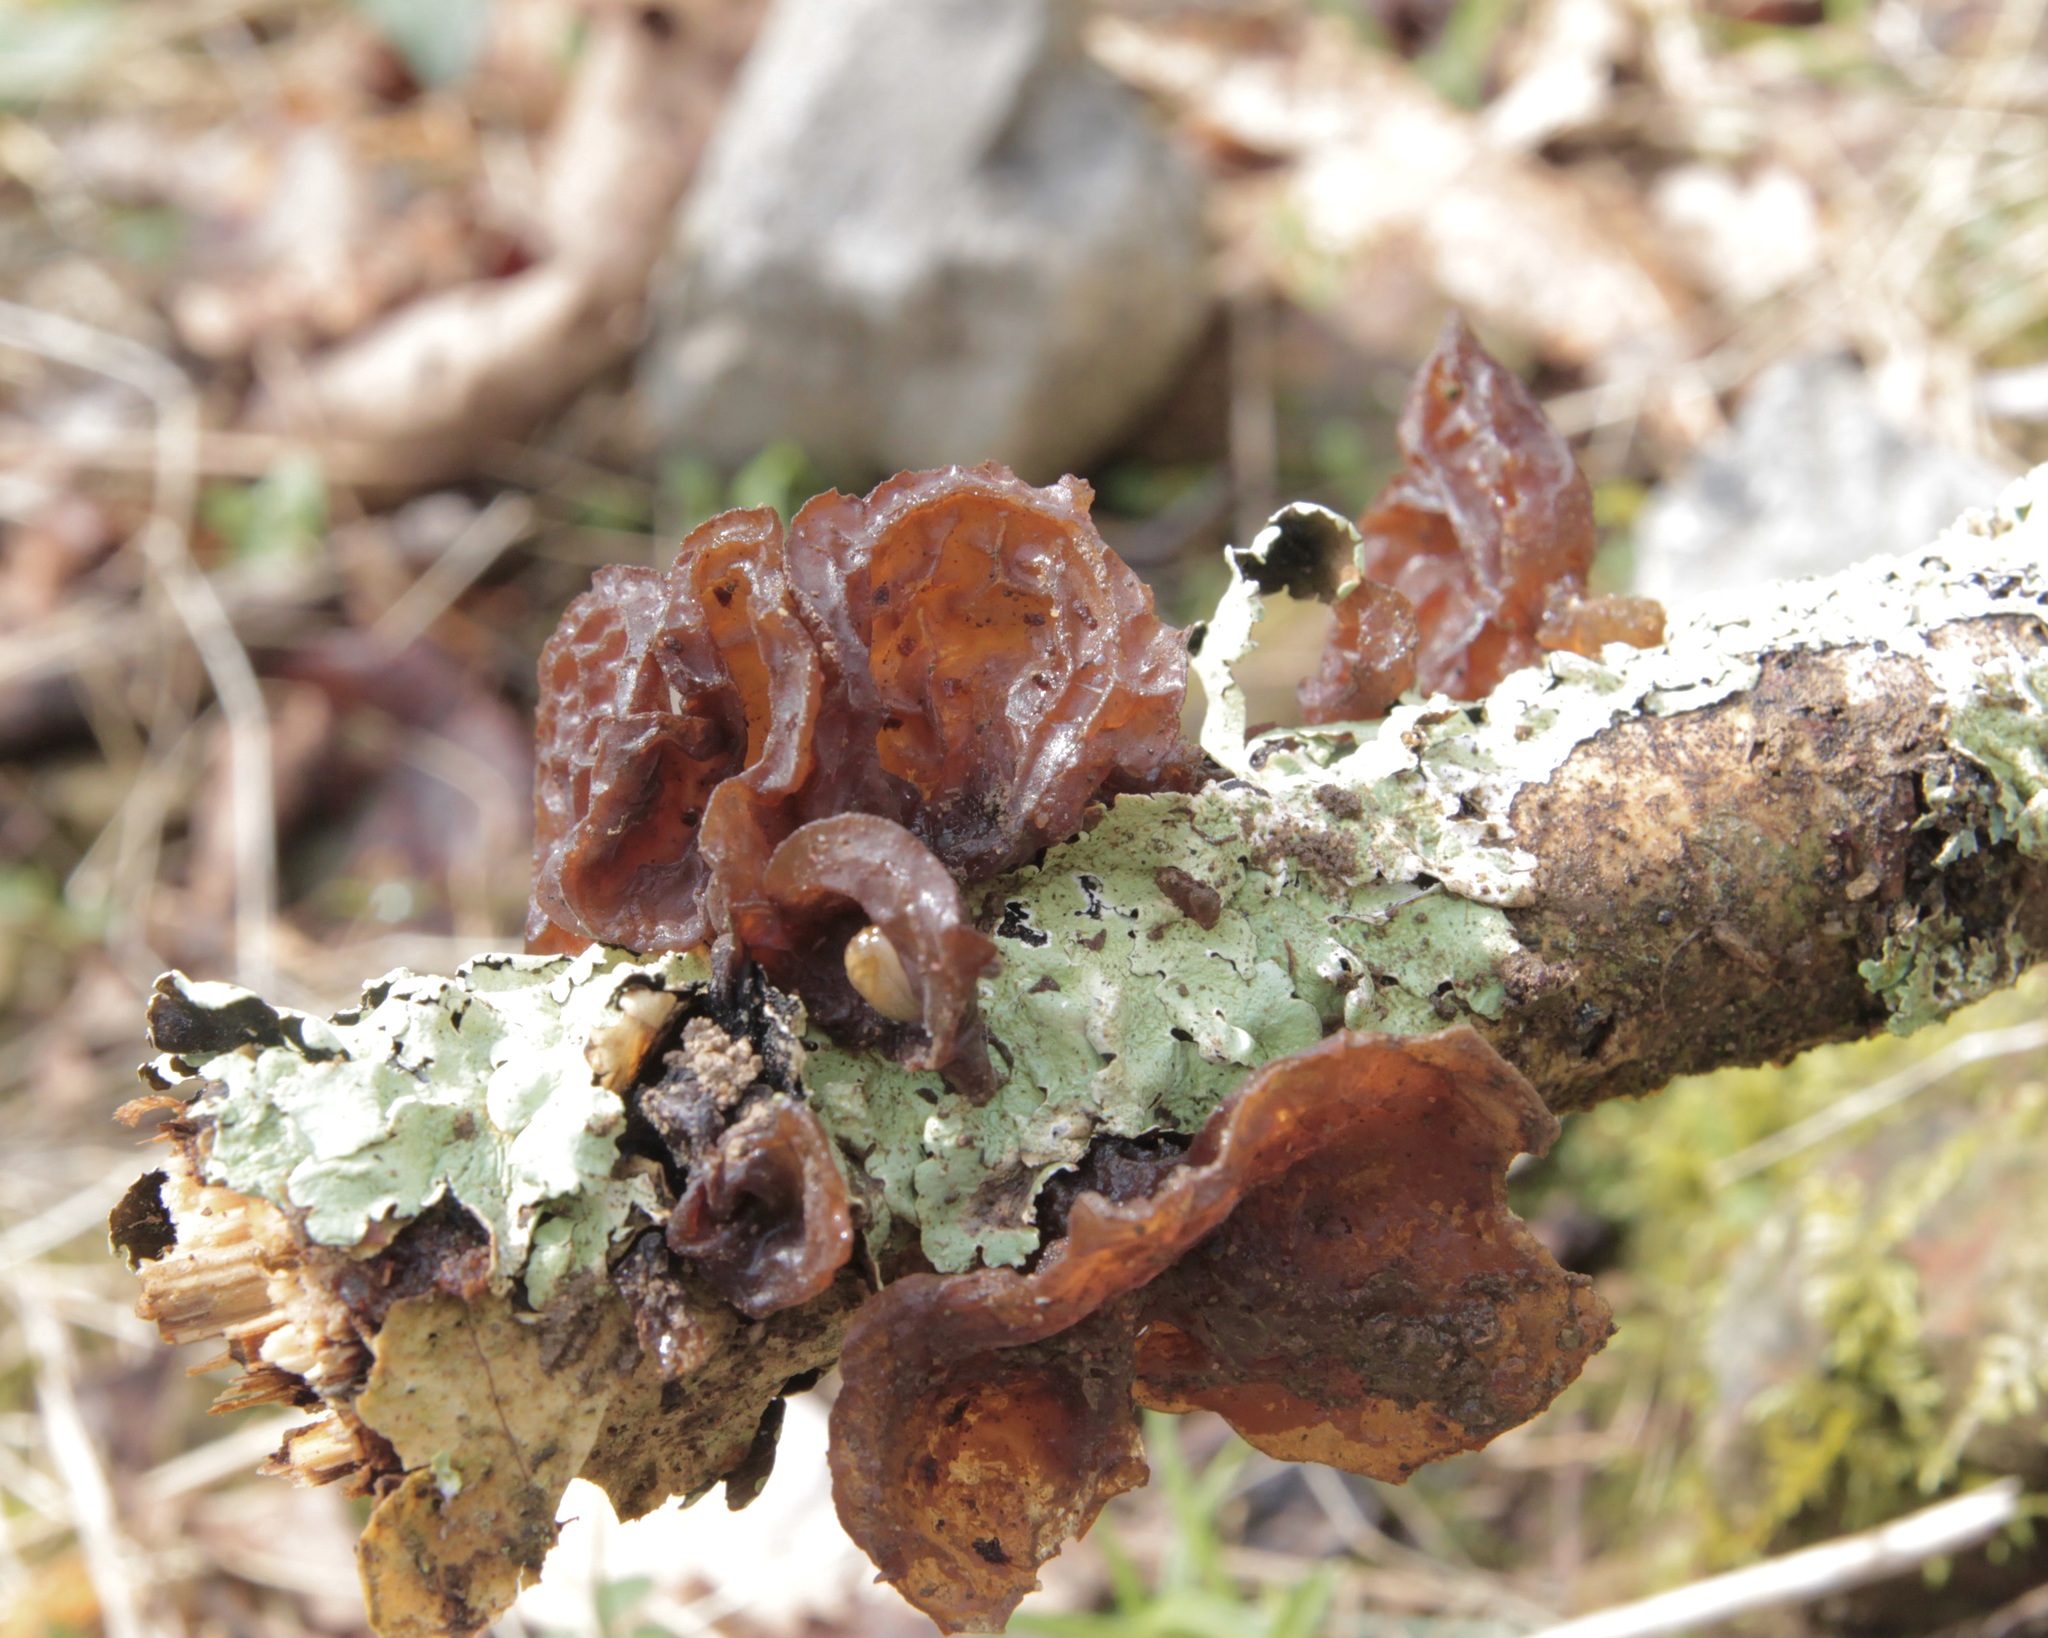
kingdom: Fungi
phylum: Basidiomycota
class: Agaricomycetes
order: Auriculariales
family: Auriculariaceae
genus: Exidia
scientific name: Exidia
